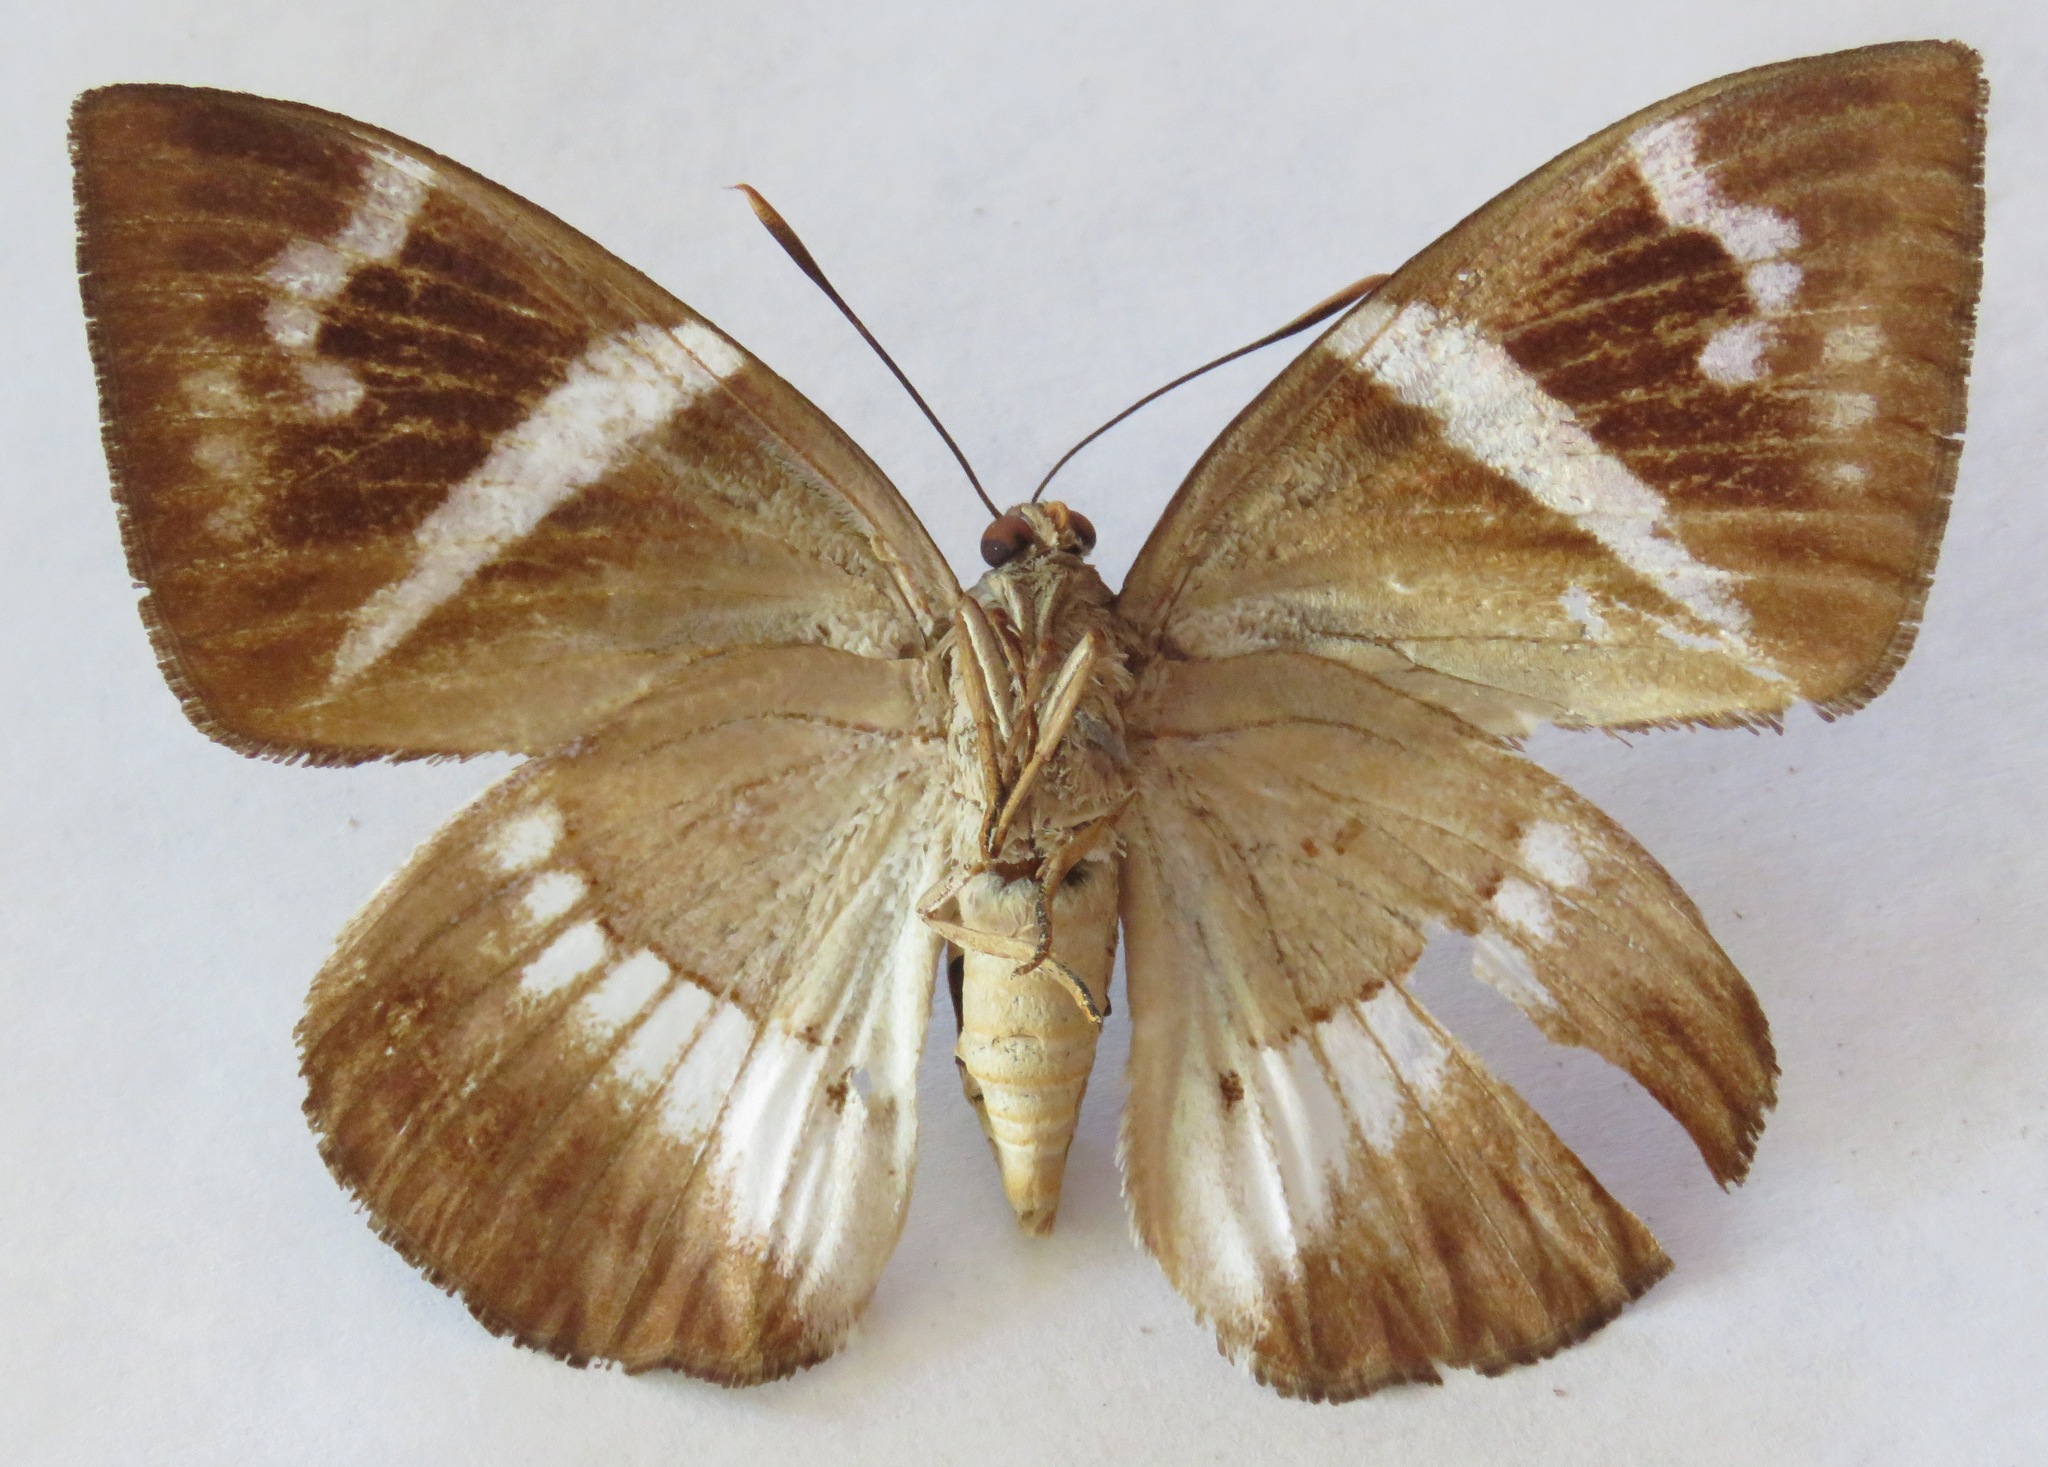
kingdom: Animalia
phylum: Arthropoda
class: Insecta
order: Lepidoptera
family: Castniidae
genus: Castniomera
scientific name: Castniomera atymnius
